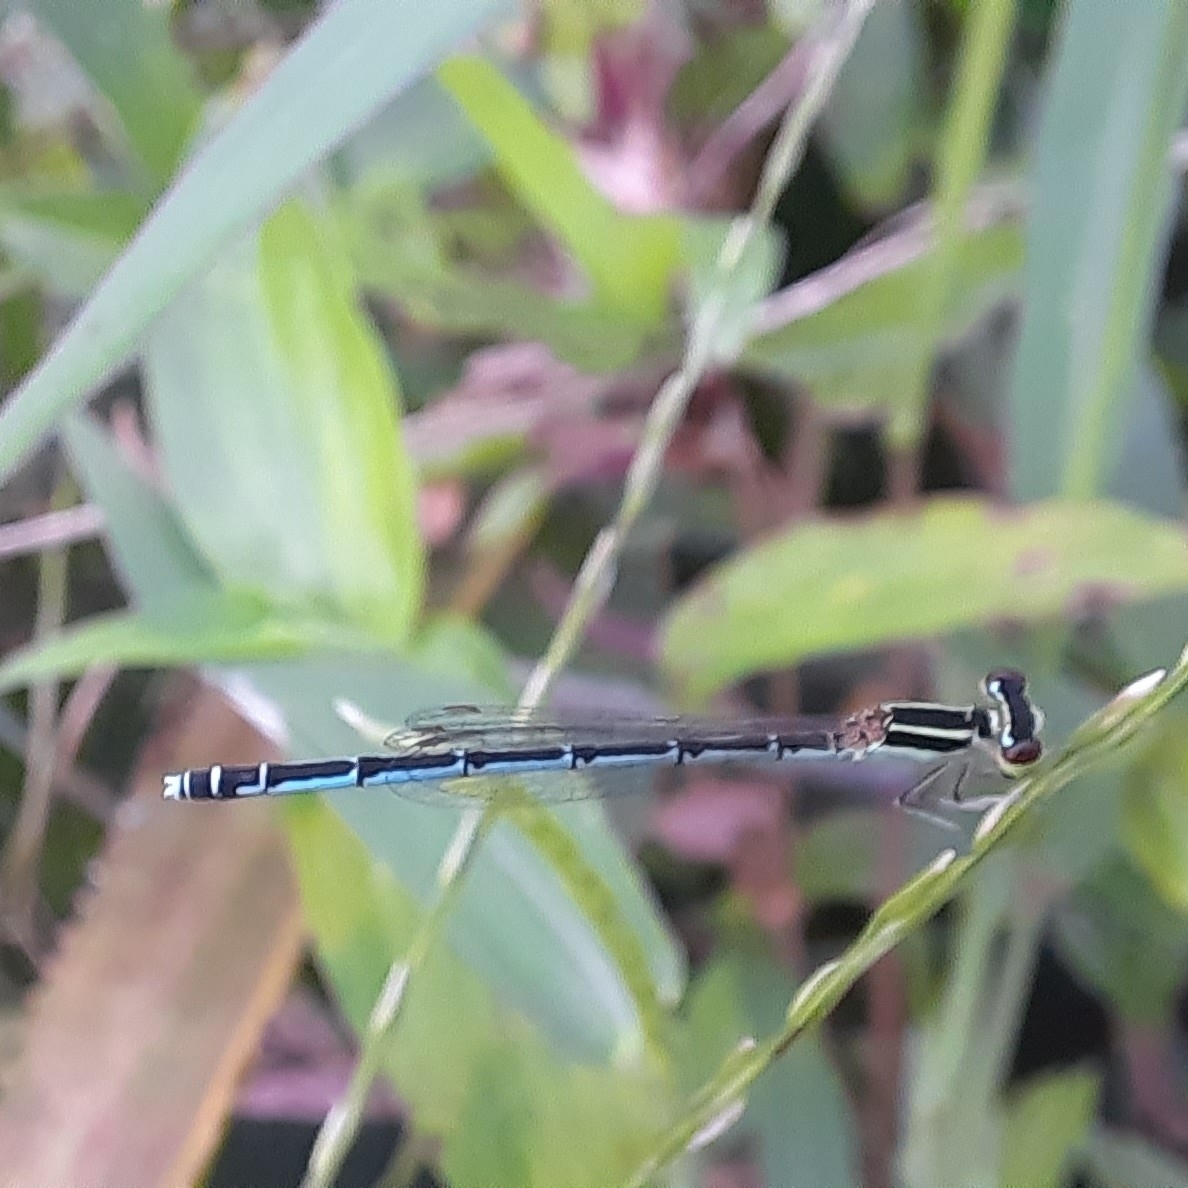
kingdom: Animalia
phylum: Arthropoda
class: Insecta
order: Odonata
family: Coenagrionidae
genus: Agriocnemis
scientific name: Agriocnemis pieris
